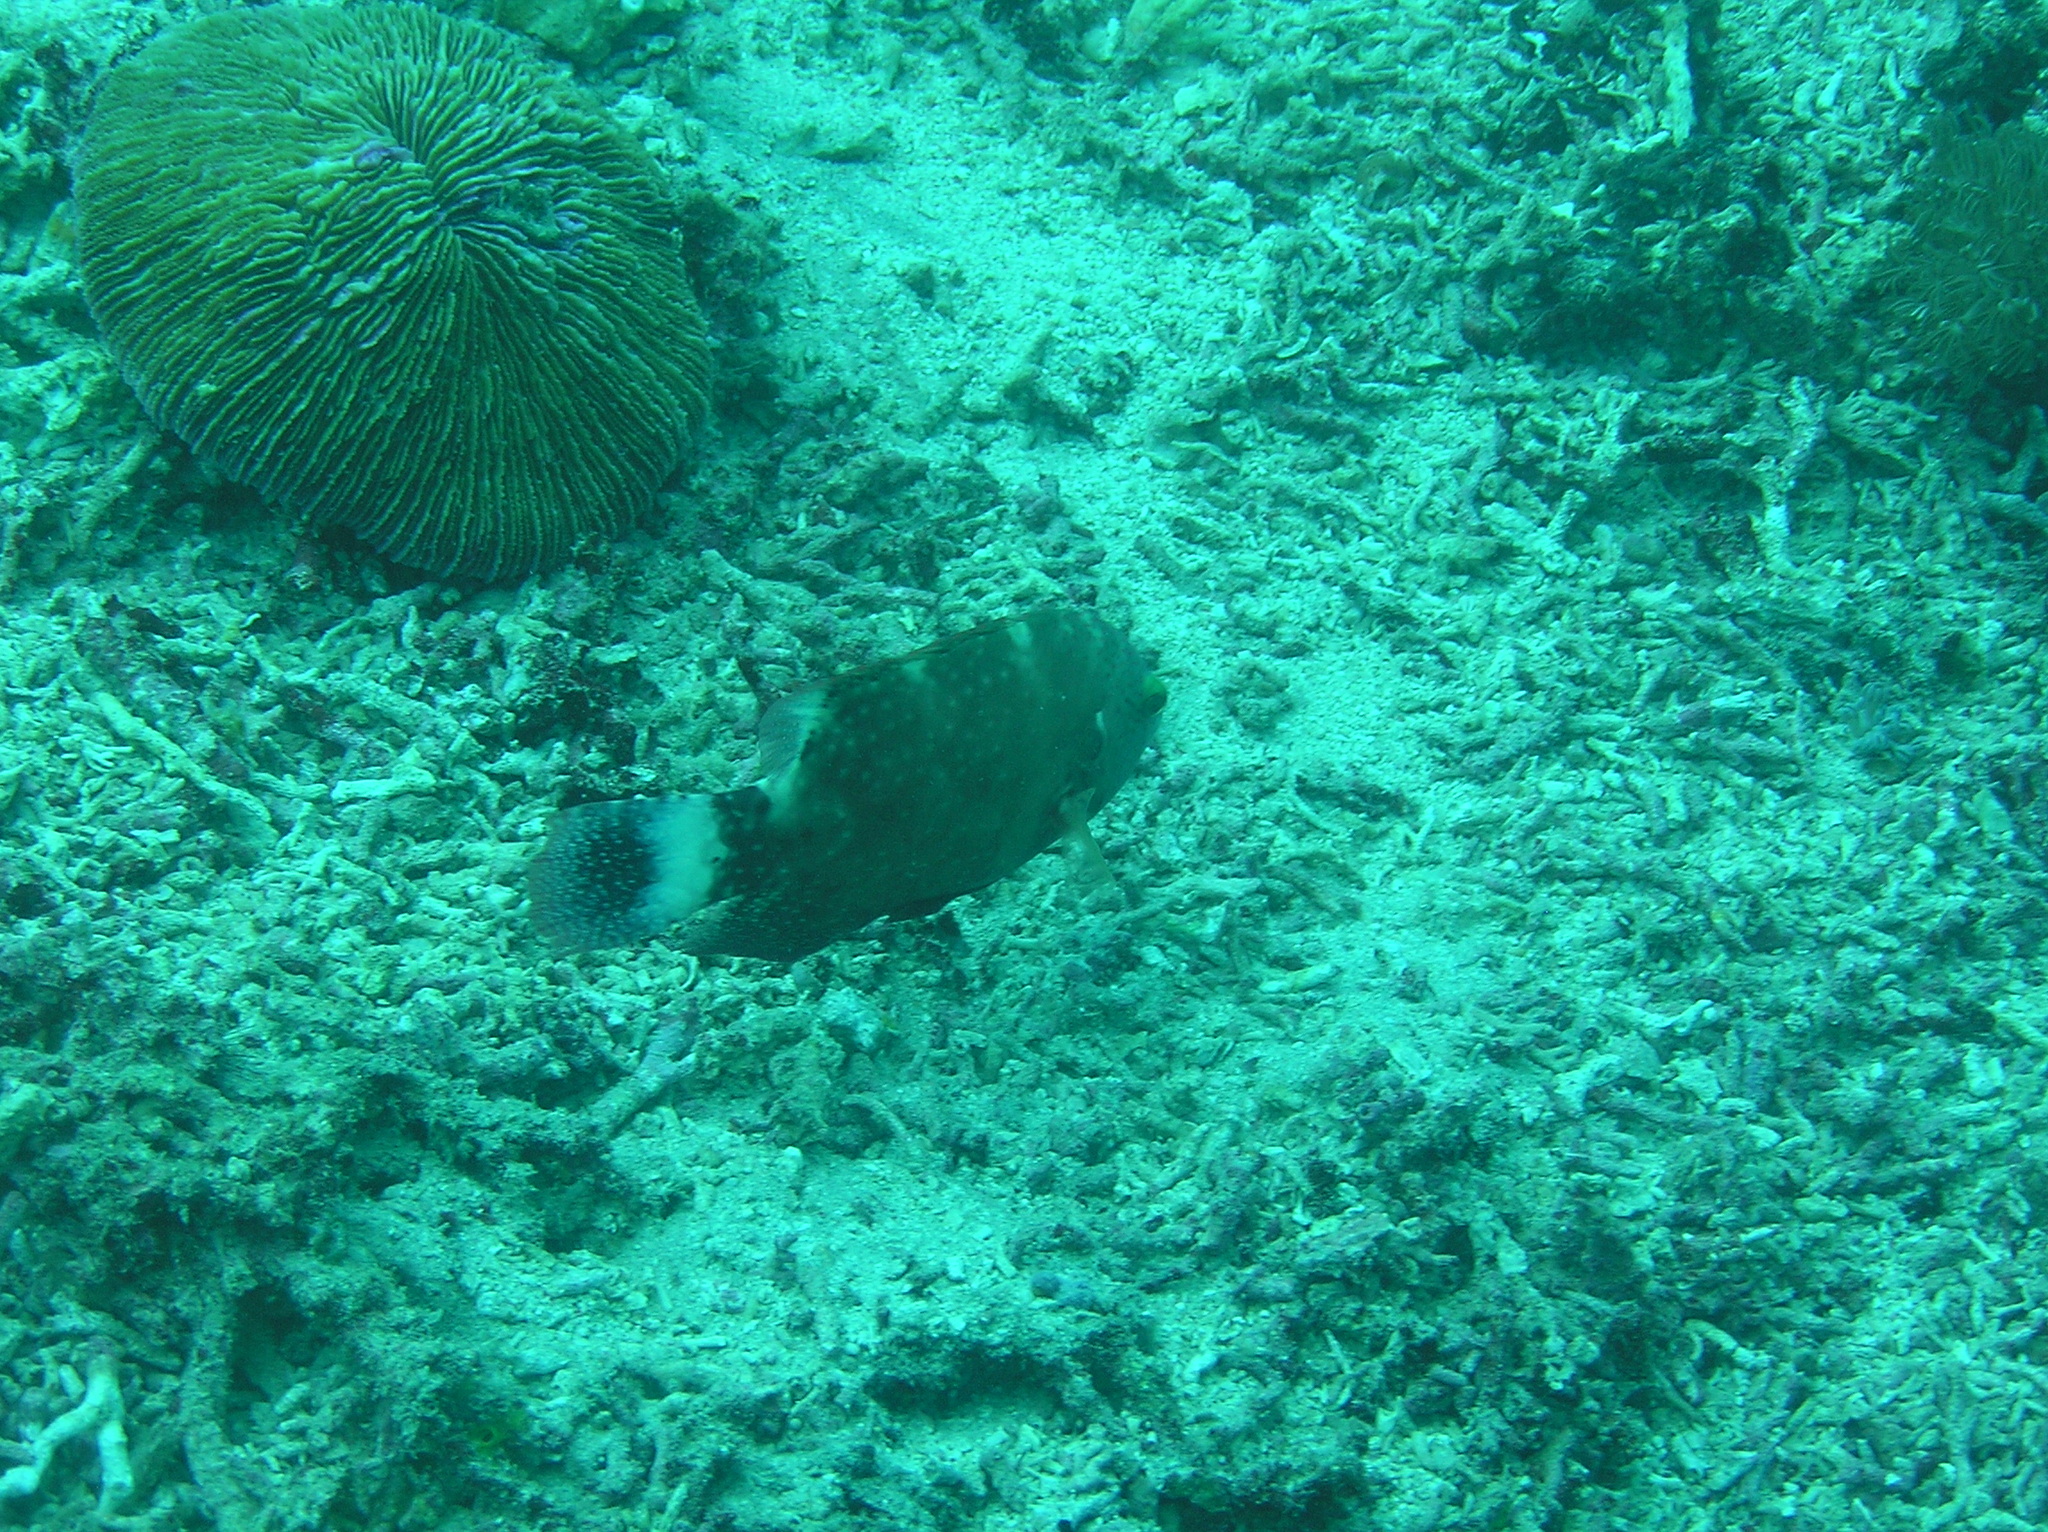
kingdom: Animalia
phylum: Chordata
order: Perciformes
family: Labridae
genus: Cheilinus
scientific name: Cheilinus chlorourus
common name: Floral wrasse
